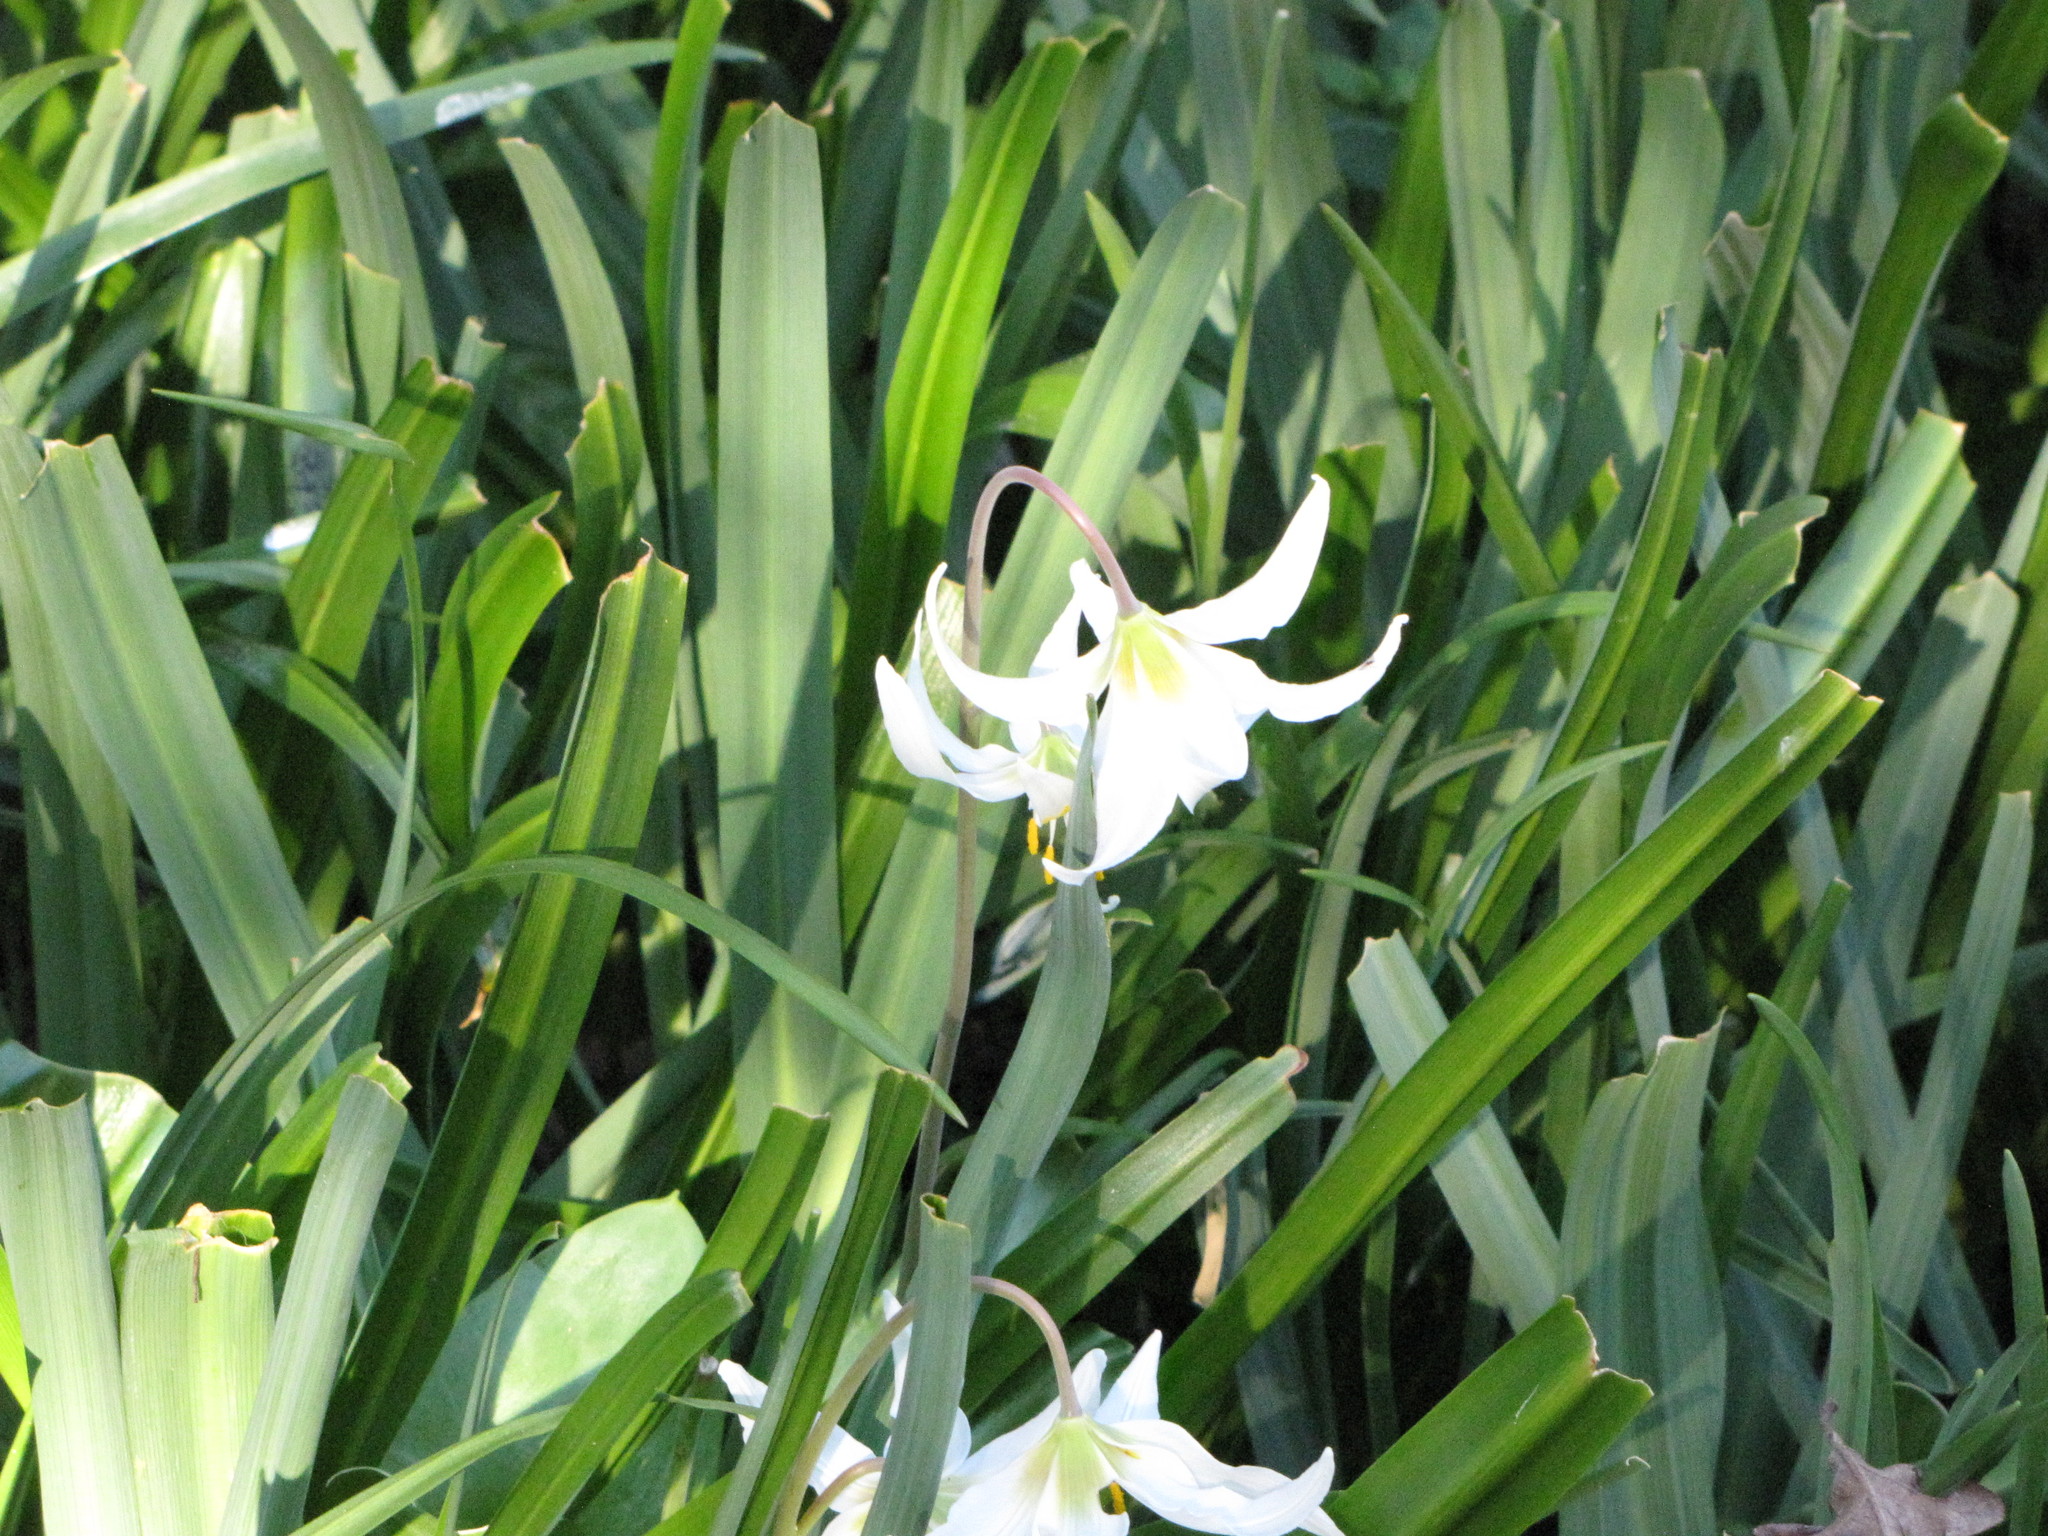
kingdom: Plantae
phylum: Tracheophyta
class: Liliopsida
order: Liliales
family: Liliaceae
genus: Erythronium
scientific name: Erythronium oregonum
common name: Giant adder's-tongue
